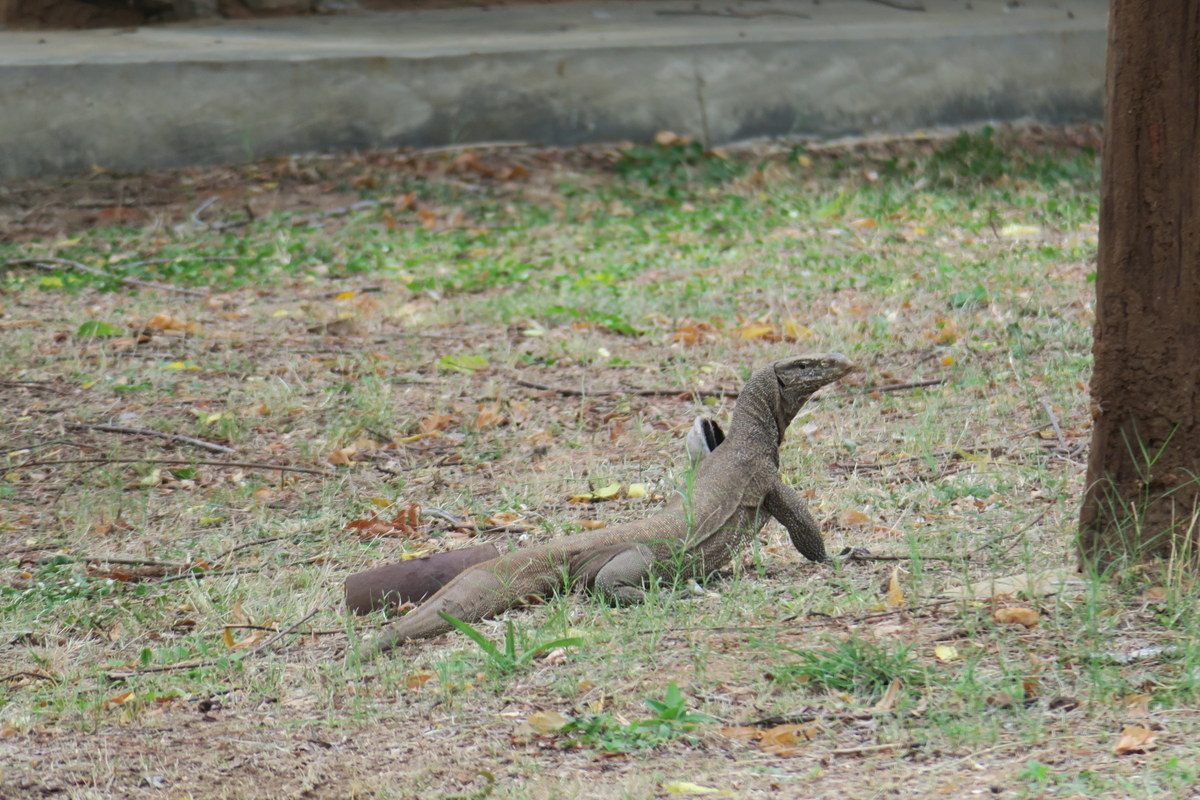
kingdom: Animalia
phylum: Chordata
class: Squamata
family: Varanidae
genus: Varanus
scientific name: Varanus bengalensis
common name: Bengal monitor
